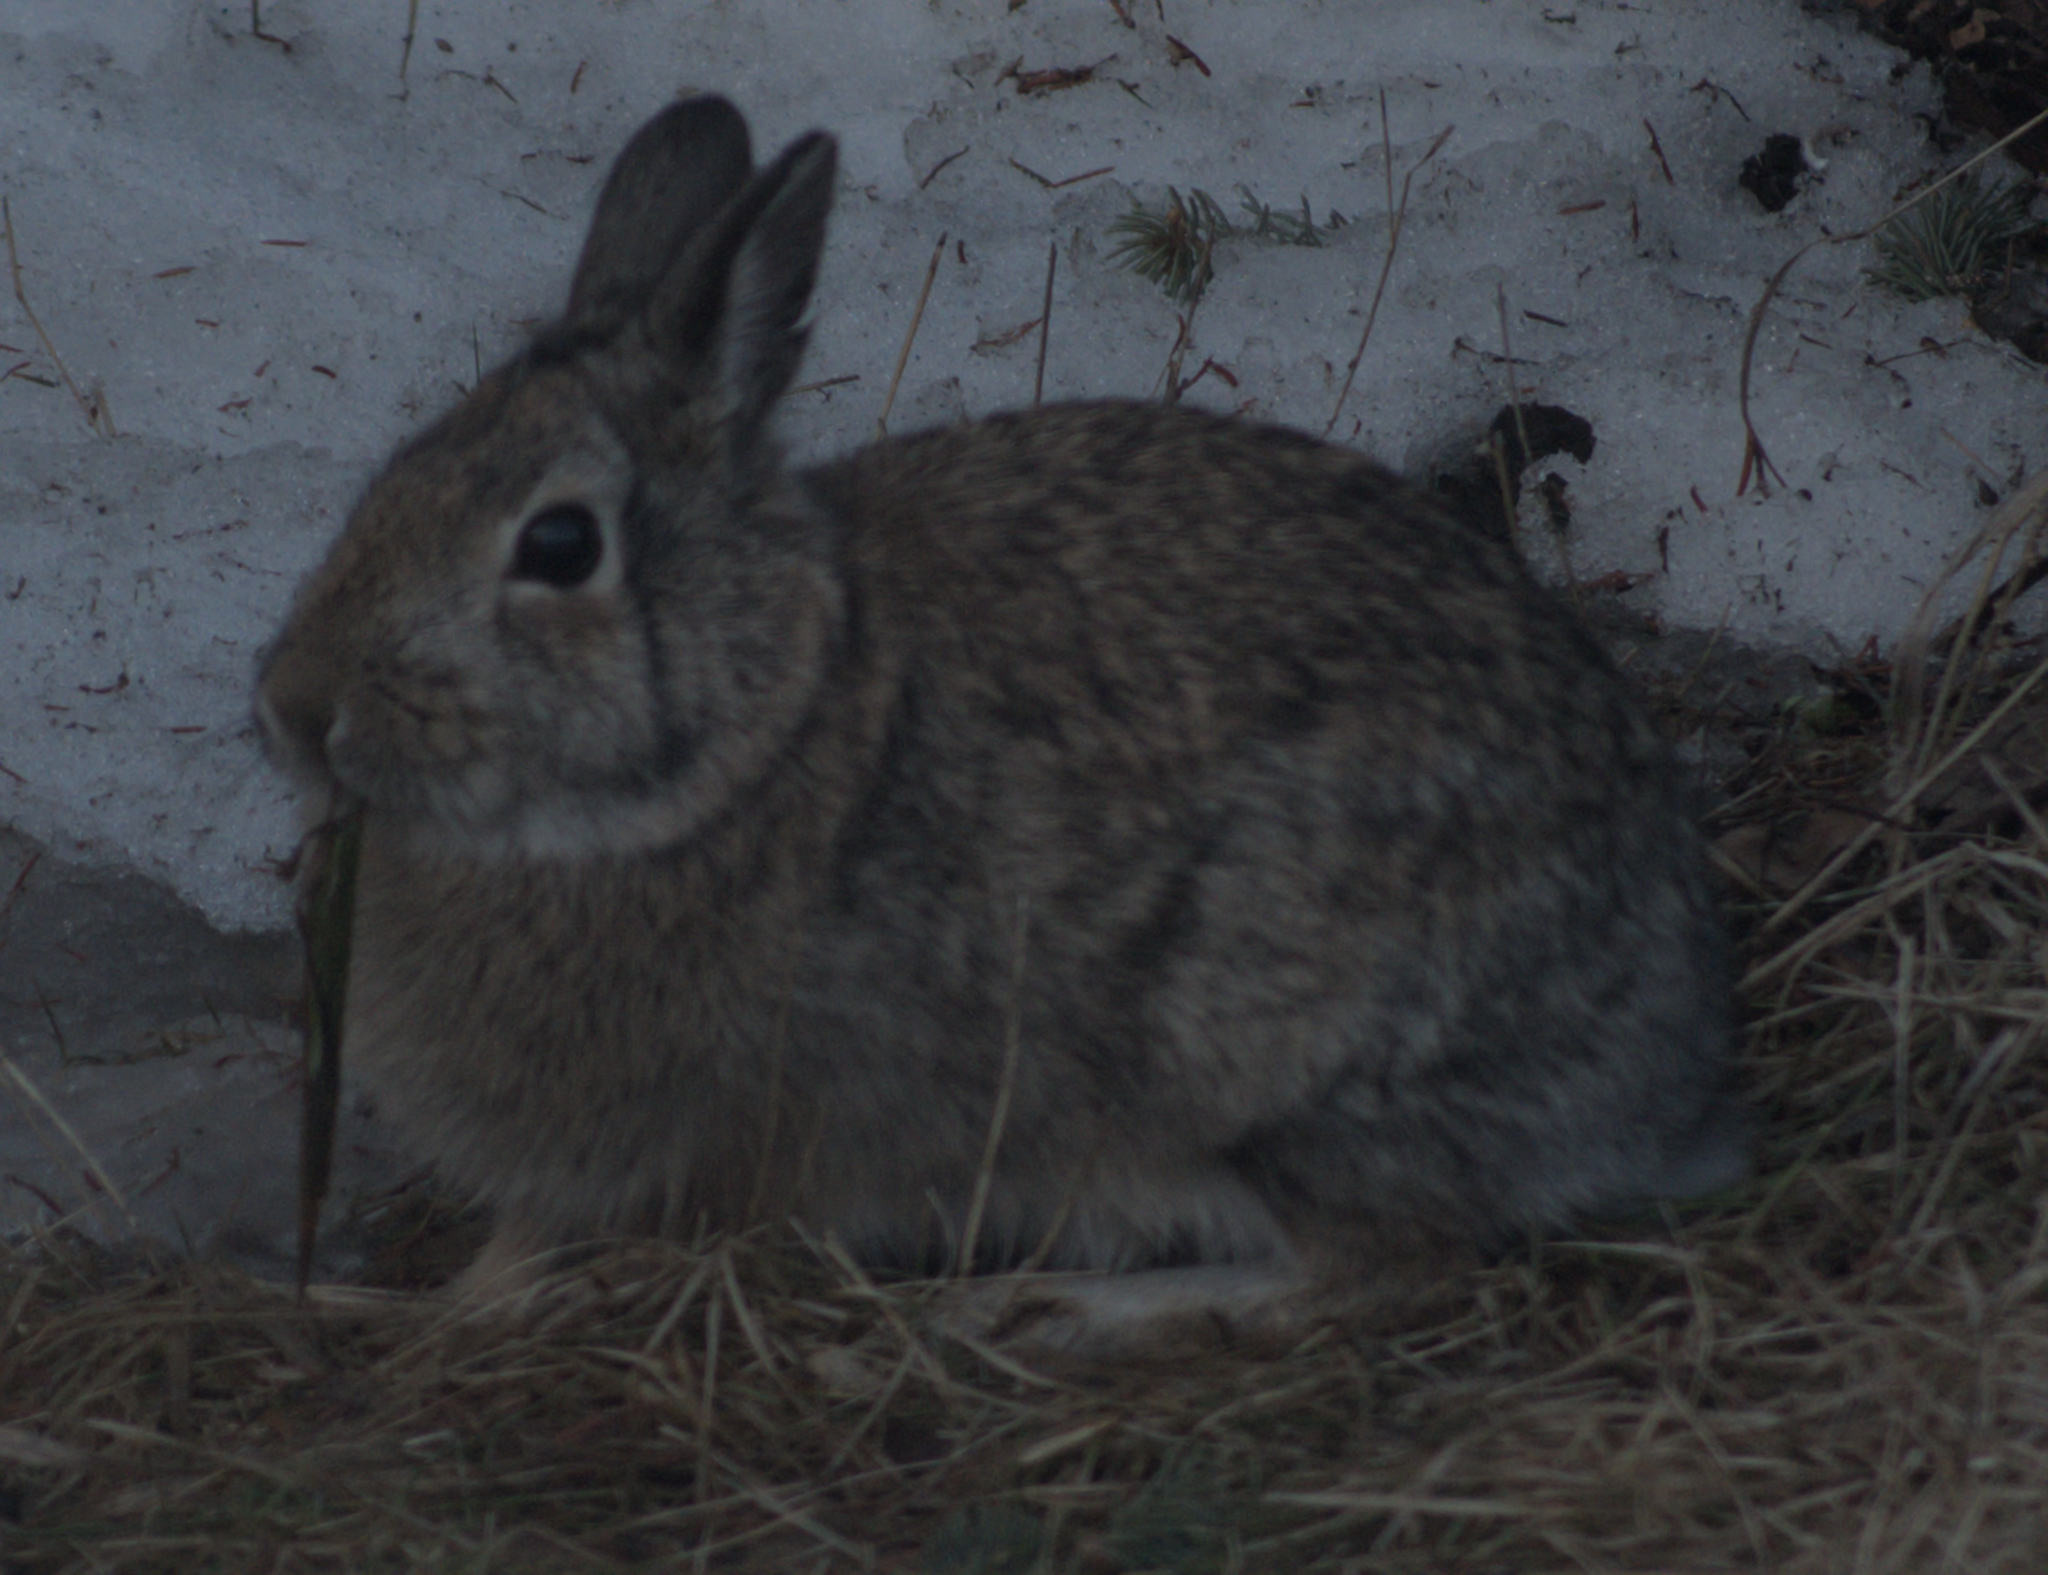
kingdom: Animalia
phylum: Chordata
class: Mammalia
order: Lagomorpha
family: Leporidae
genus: Sylvilagus
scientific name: Sylvilagus floridanus
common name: Eastern cottontail
